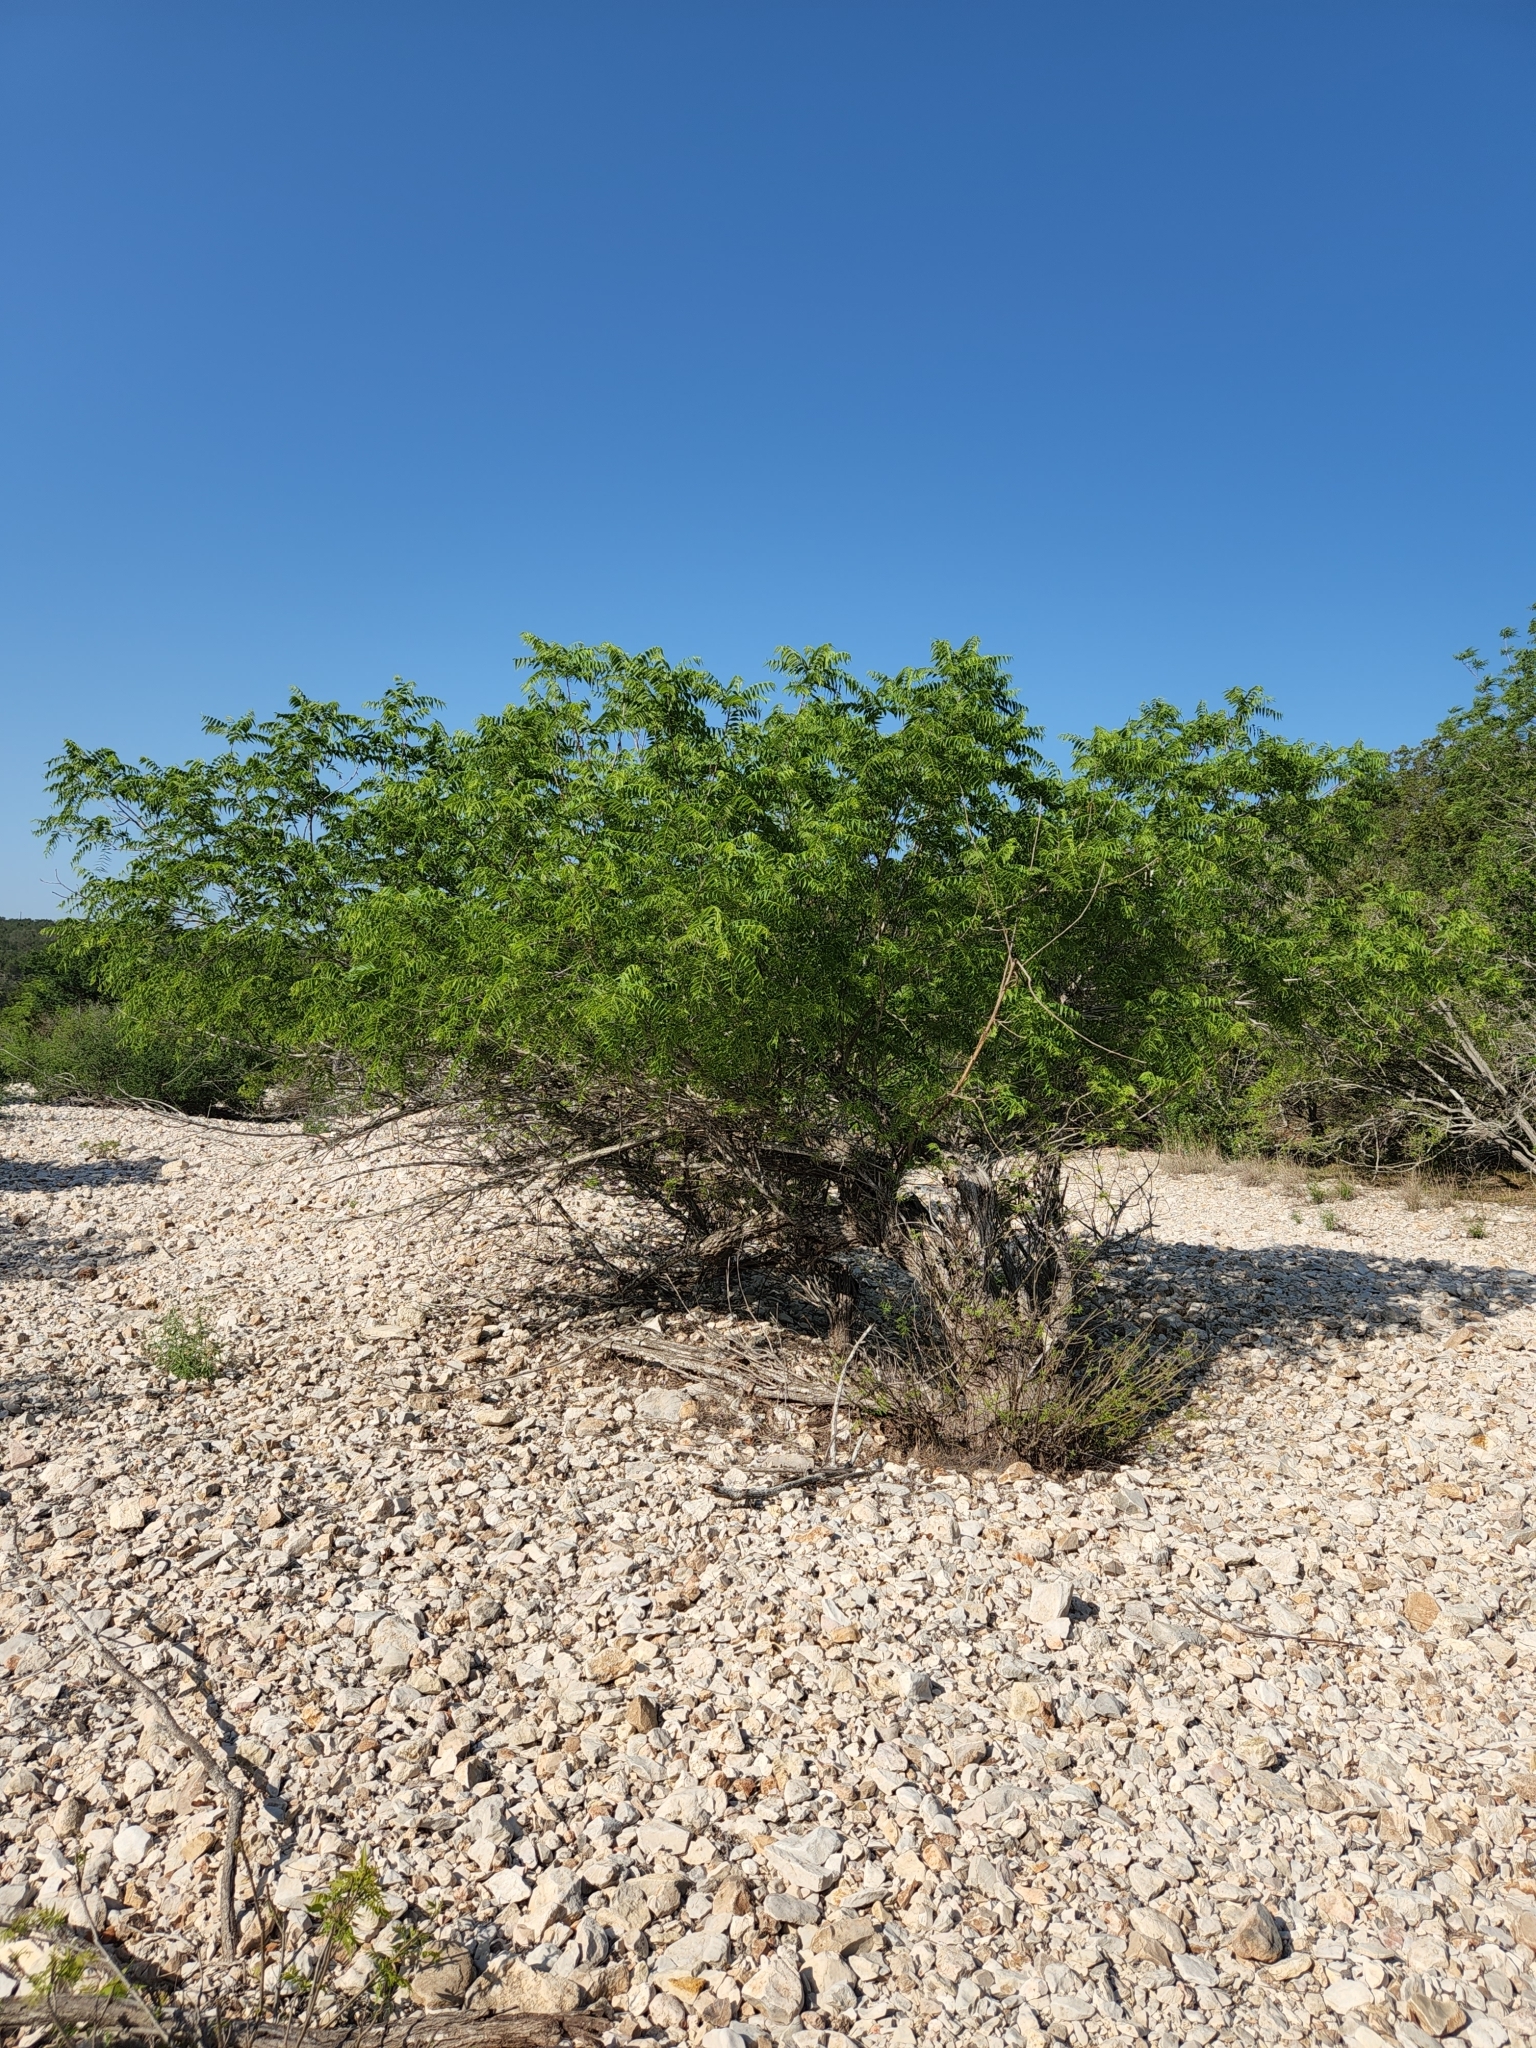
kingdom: Plantae
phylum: Tracheophyta
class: Magnoliopsida
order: Fagales
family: Juglandaceae
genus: Juglans
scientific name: Juglans microcarpa
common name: Texas walnut
